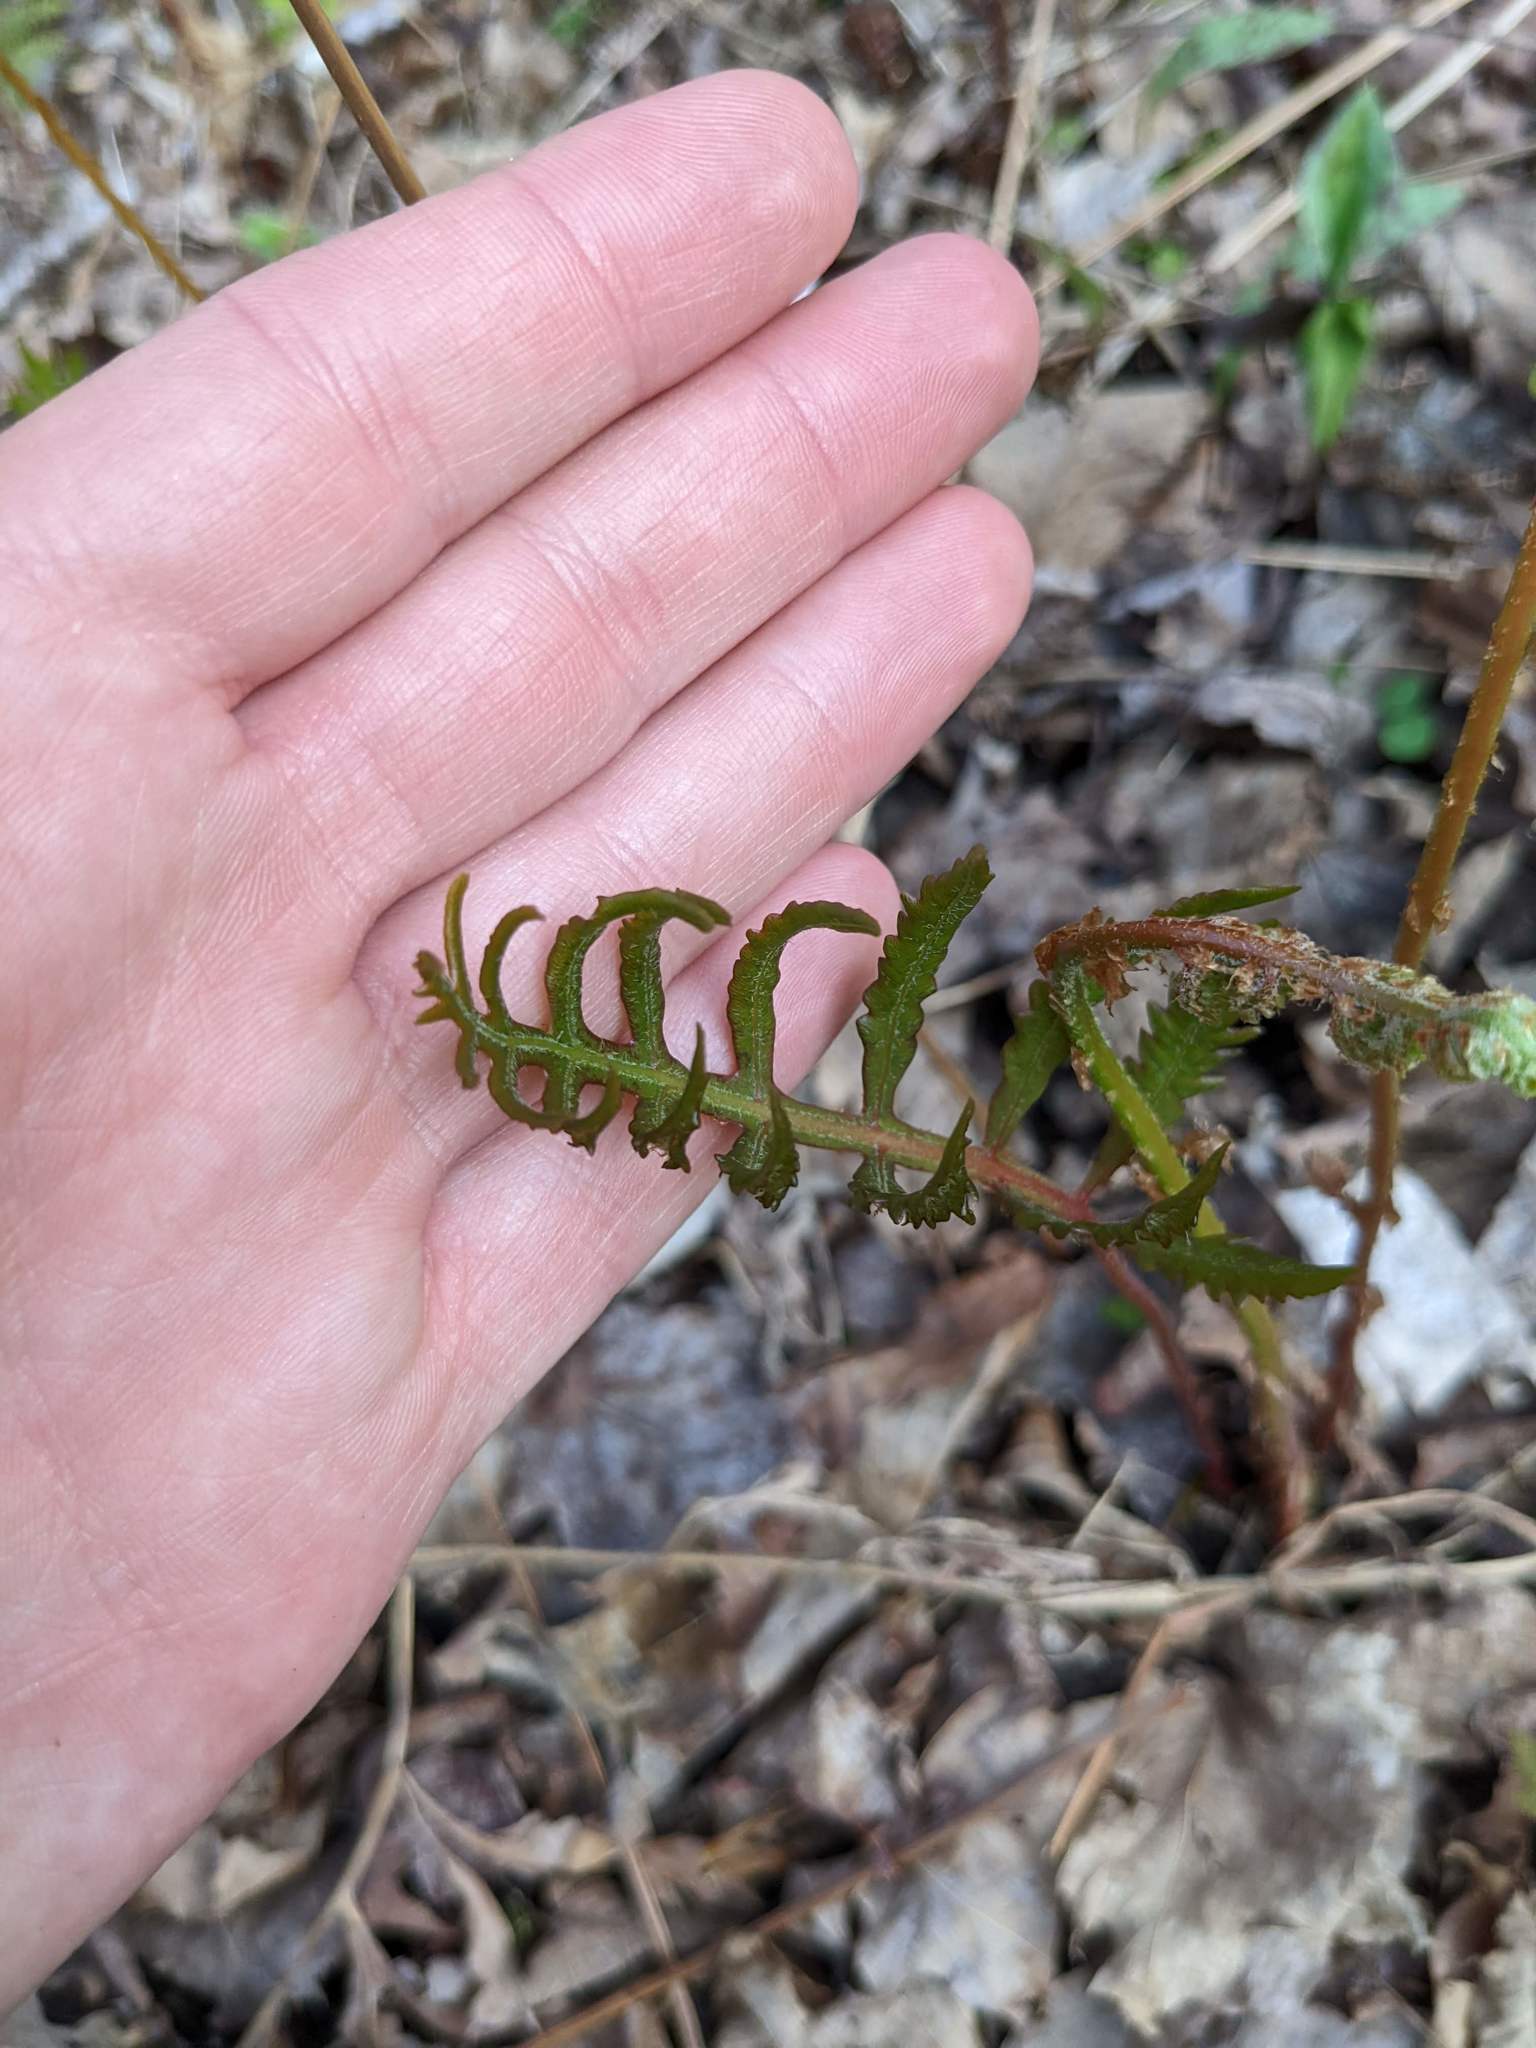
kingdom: Plantae
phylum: Tracheophyta
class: Polypodiopsida
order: Polypodiales
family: Onocleaceae
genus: Onoclea
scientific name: Onoclea sensibilis
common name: Sensitive fern
